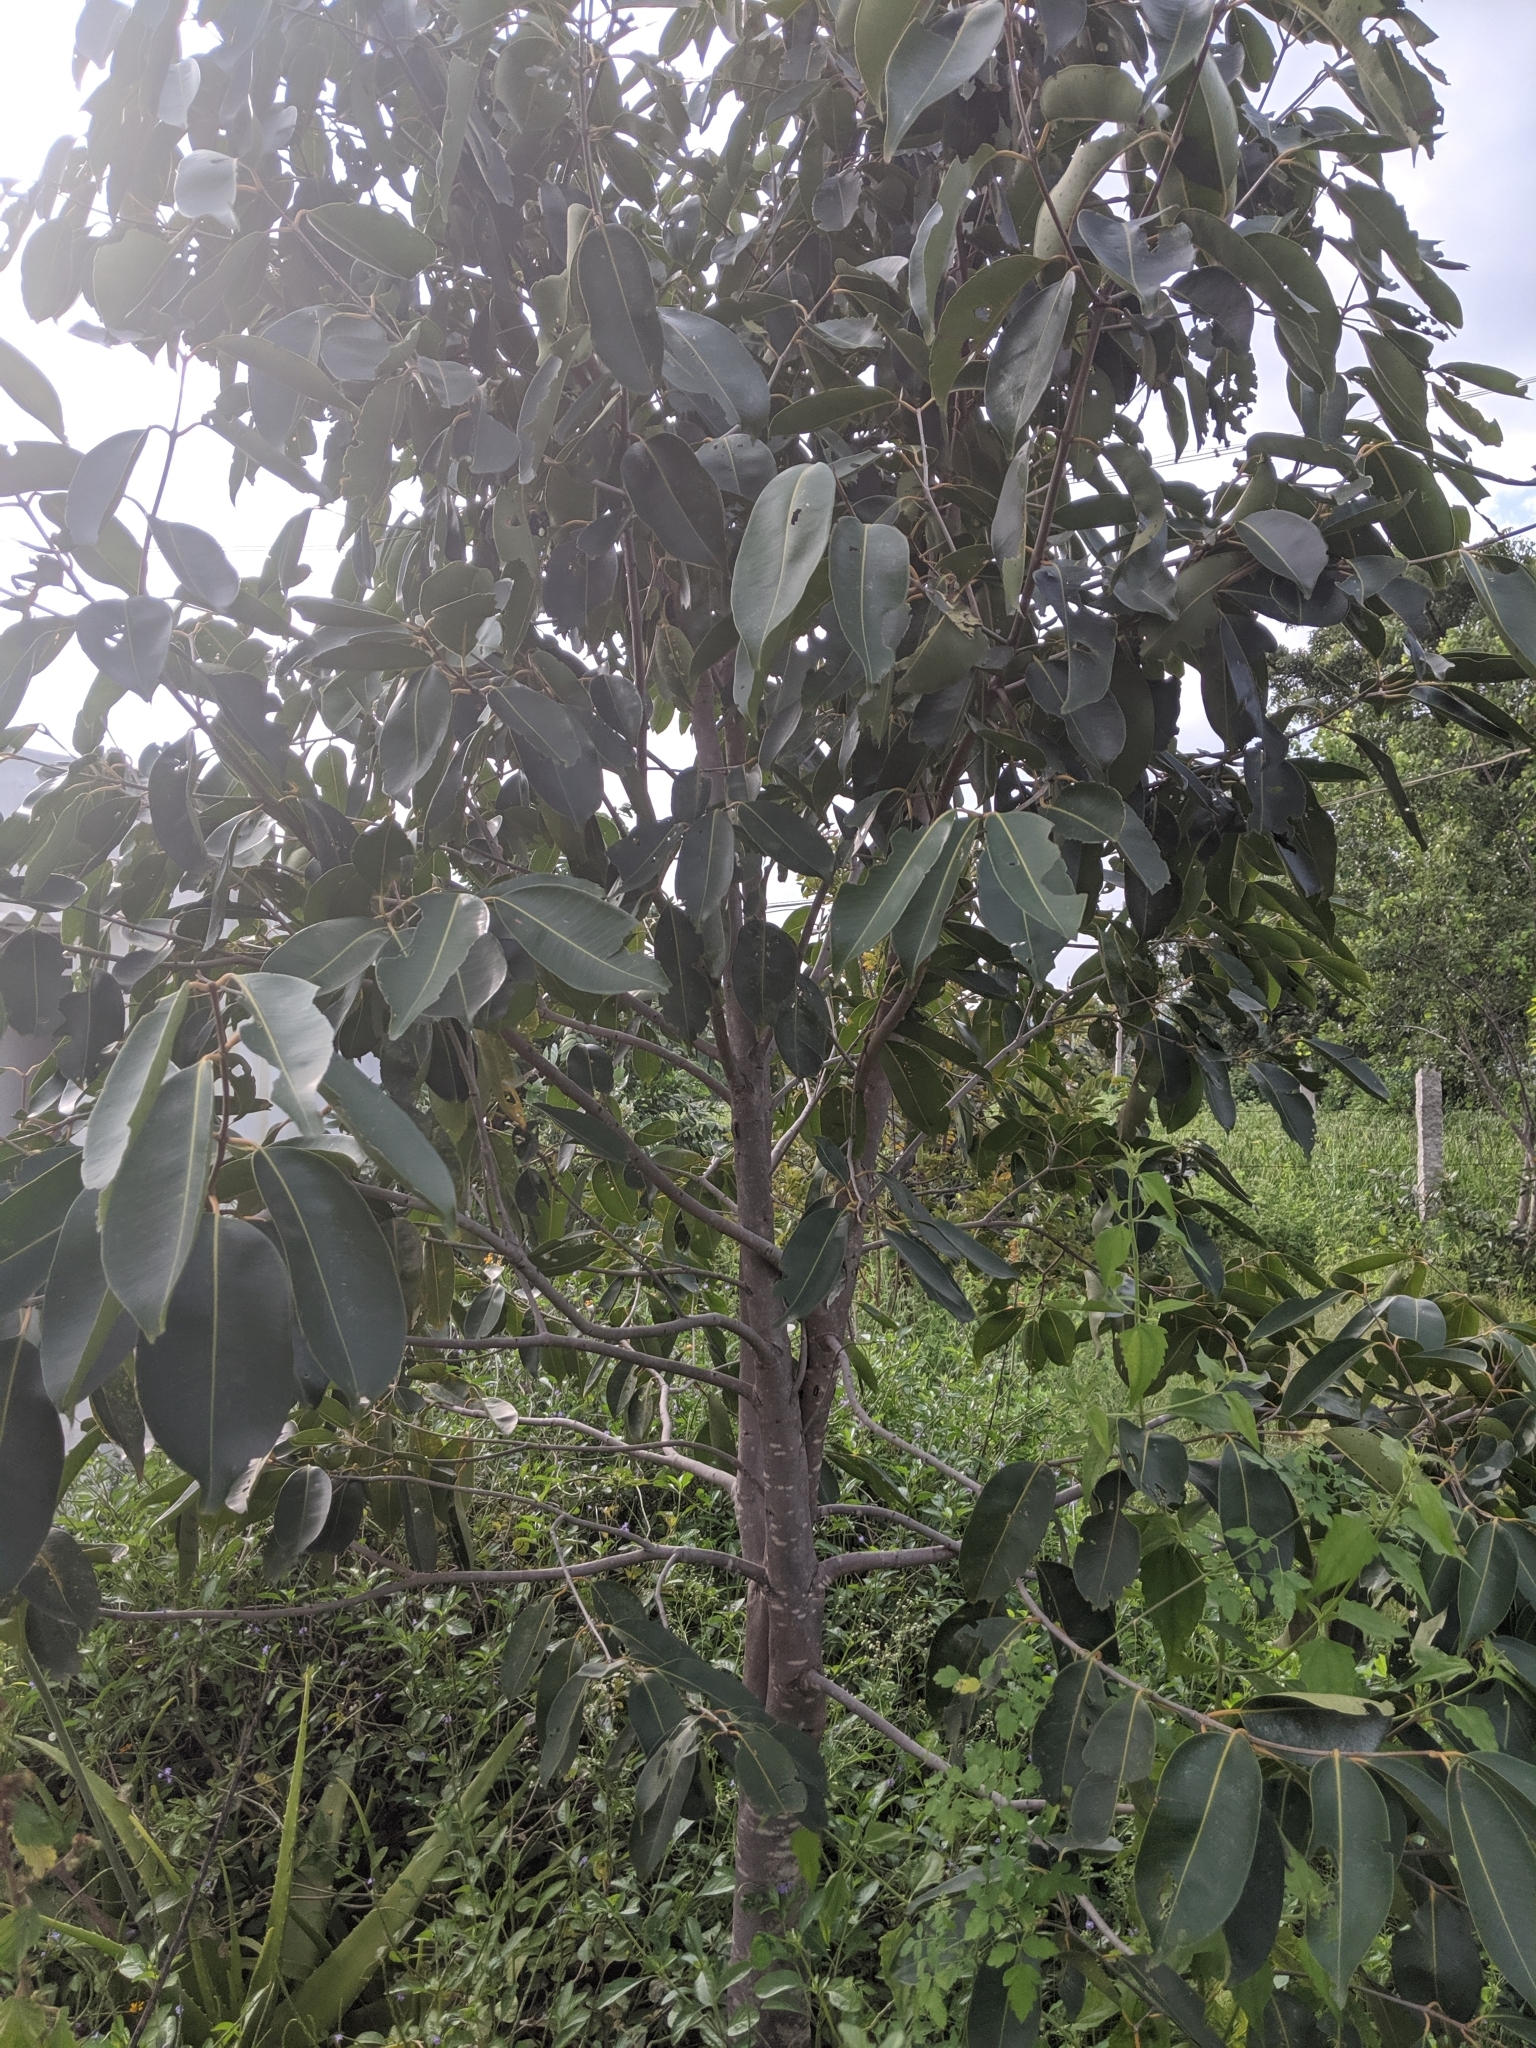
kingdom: Plantae
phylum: Tracheophyta
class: Magnoliopsida
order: Myrtales
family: Myrtaceae
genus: Syzygium
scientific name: Syzygium cumini
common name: Java plum
